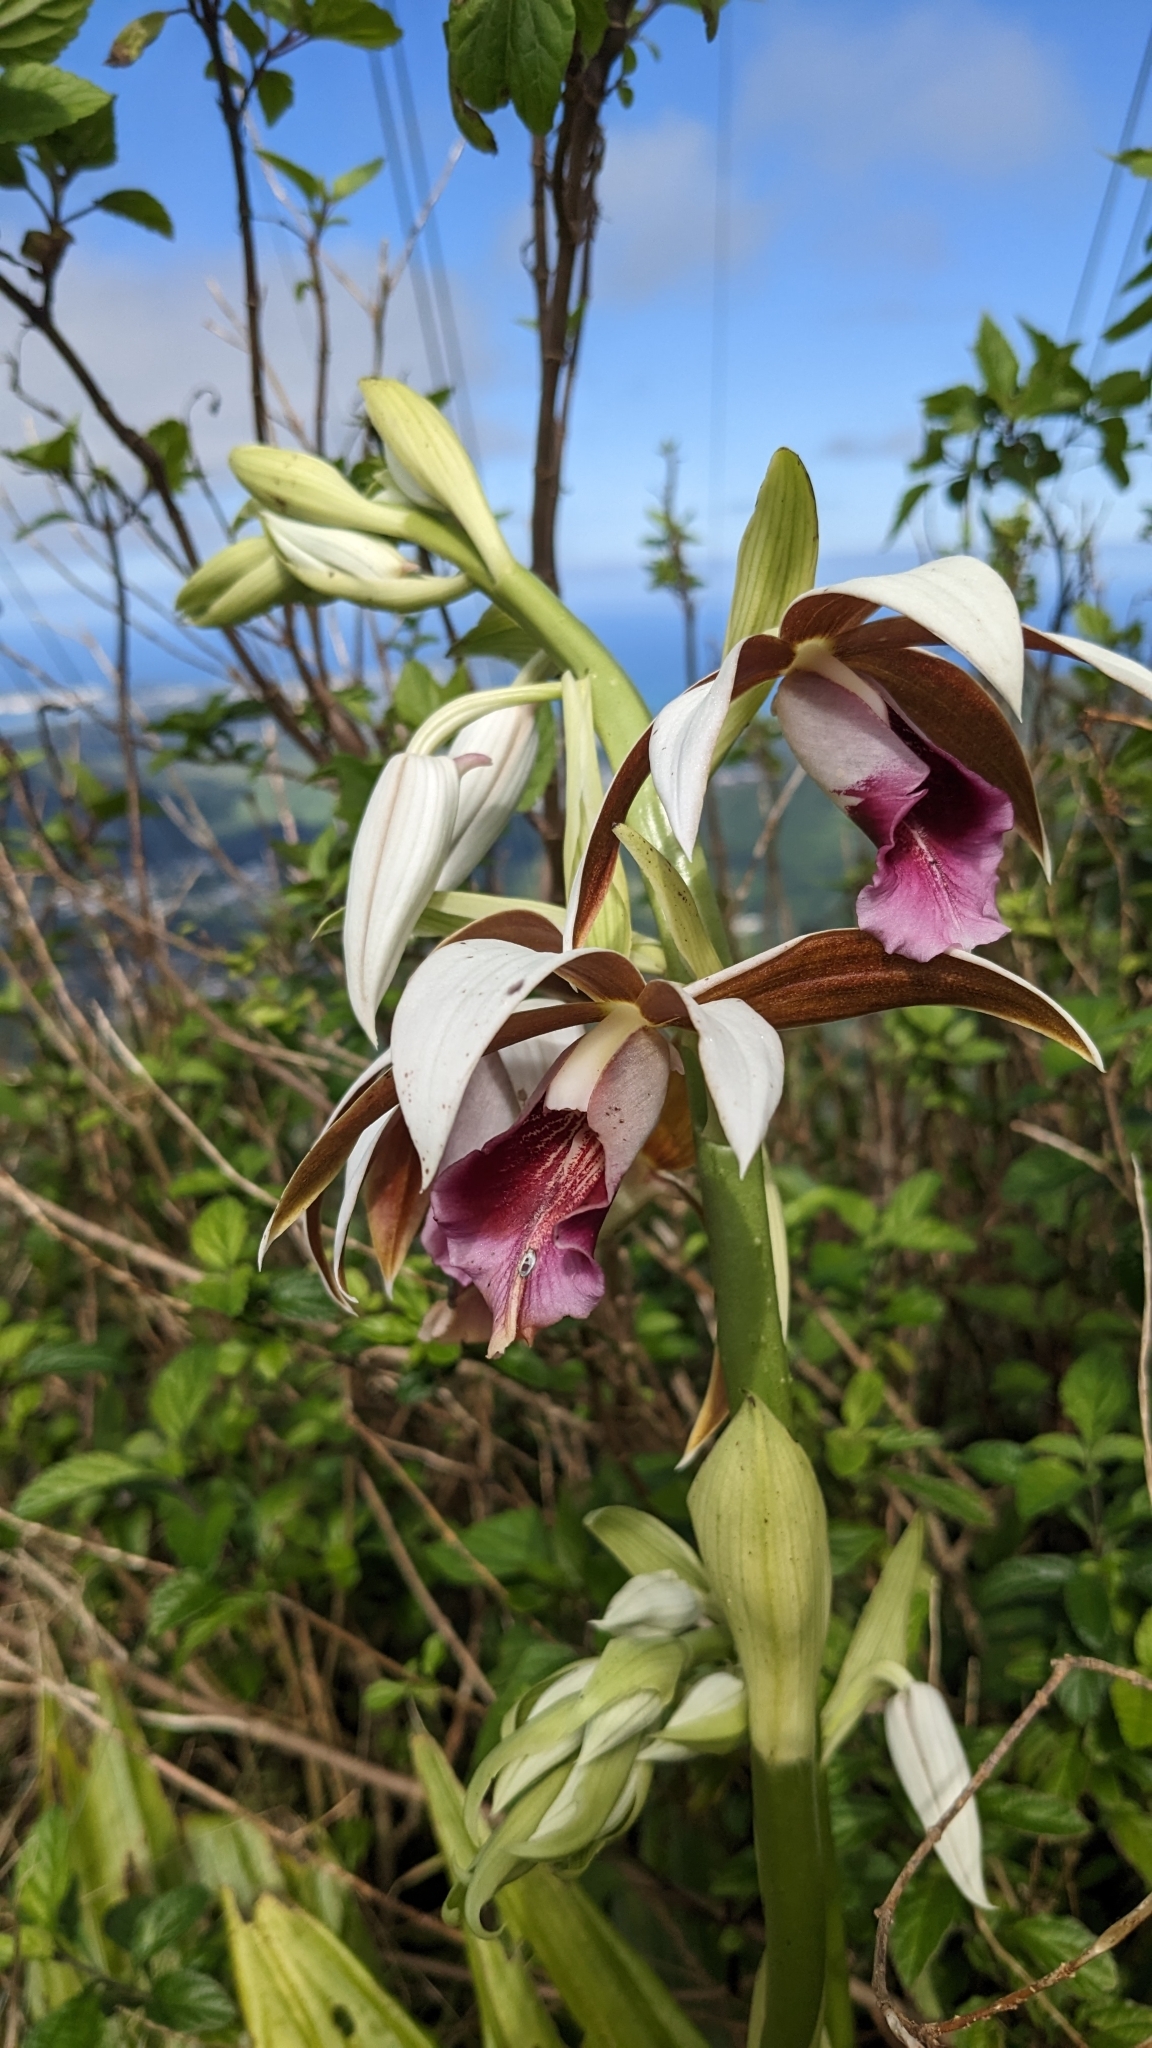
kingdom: Plantae
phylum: Tracheophyta
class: Liliopsida
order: Asparagales
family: Orchidaceae
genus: Calanthe
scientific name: Calanthe tankervilleae
